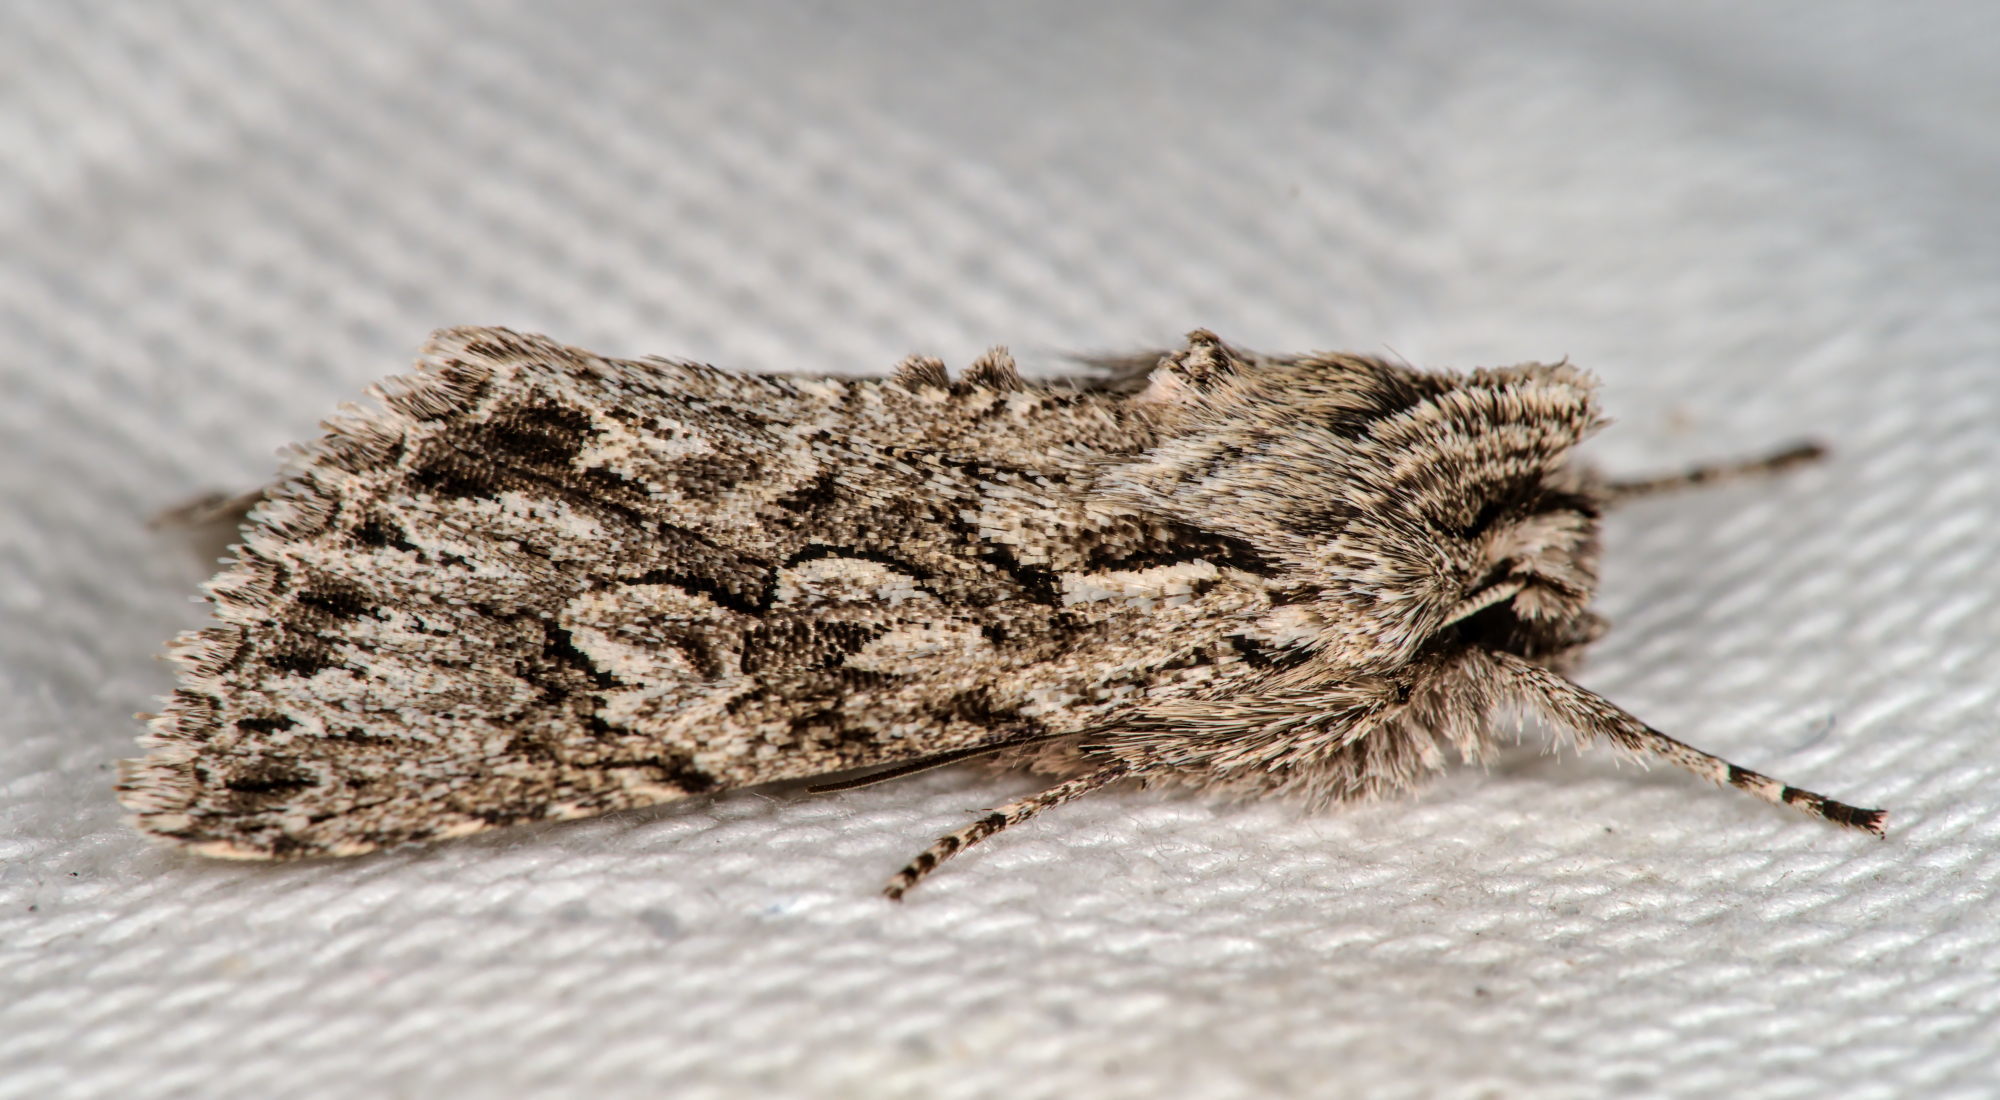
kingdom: Animalia
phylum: Arthropoda
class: Insecta
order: Lepidoptera
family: Noctuidae
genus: Xylocampa
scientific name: Xylocampa areola
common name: Early grey
